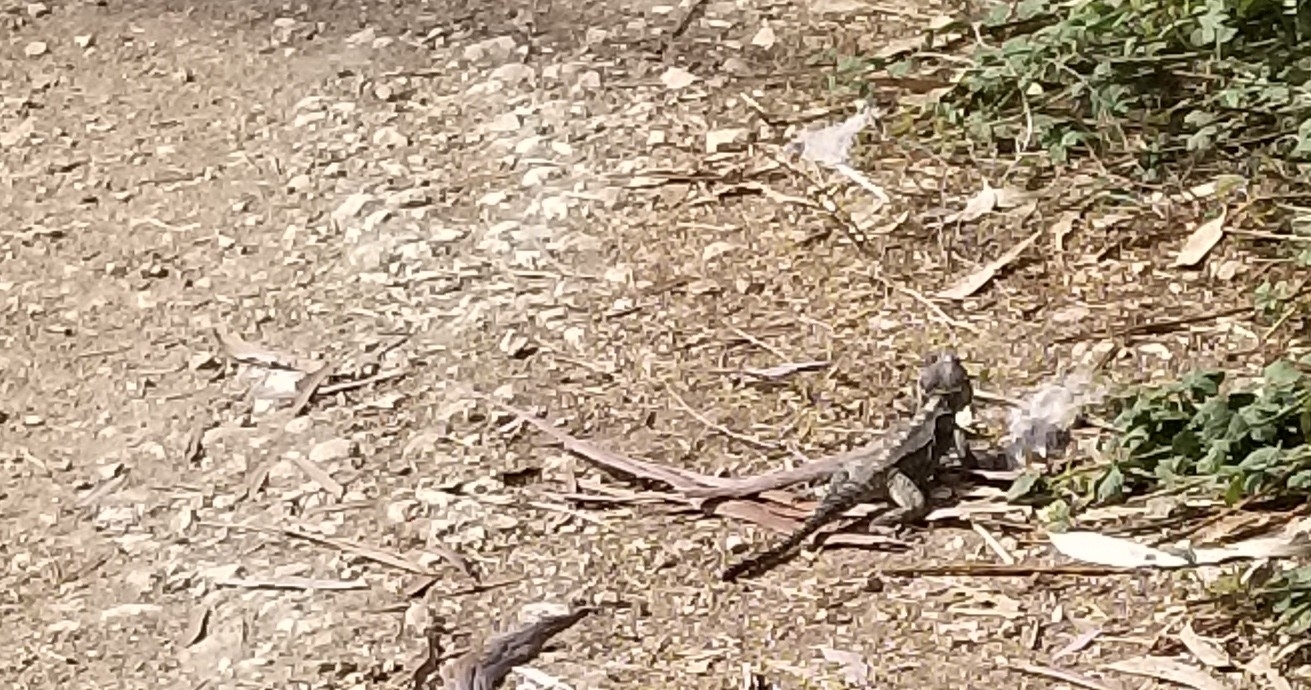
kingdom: Animalia
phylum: Chordata
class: Squamata
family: Agamidae
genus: Laudakia
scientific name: Laudakia vulgaris
